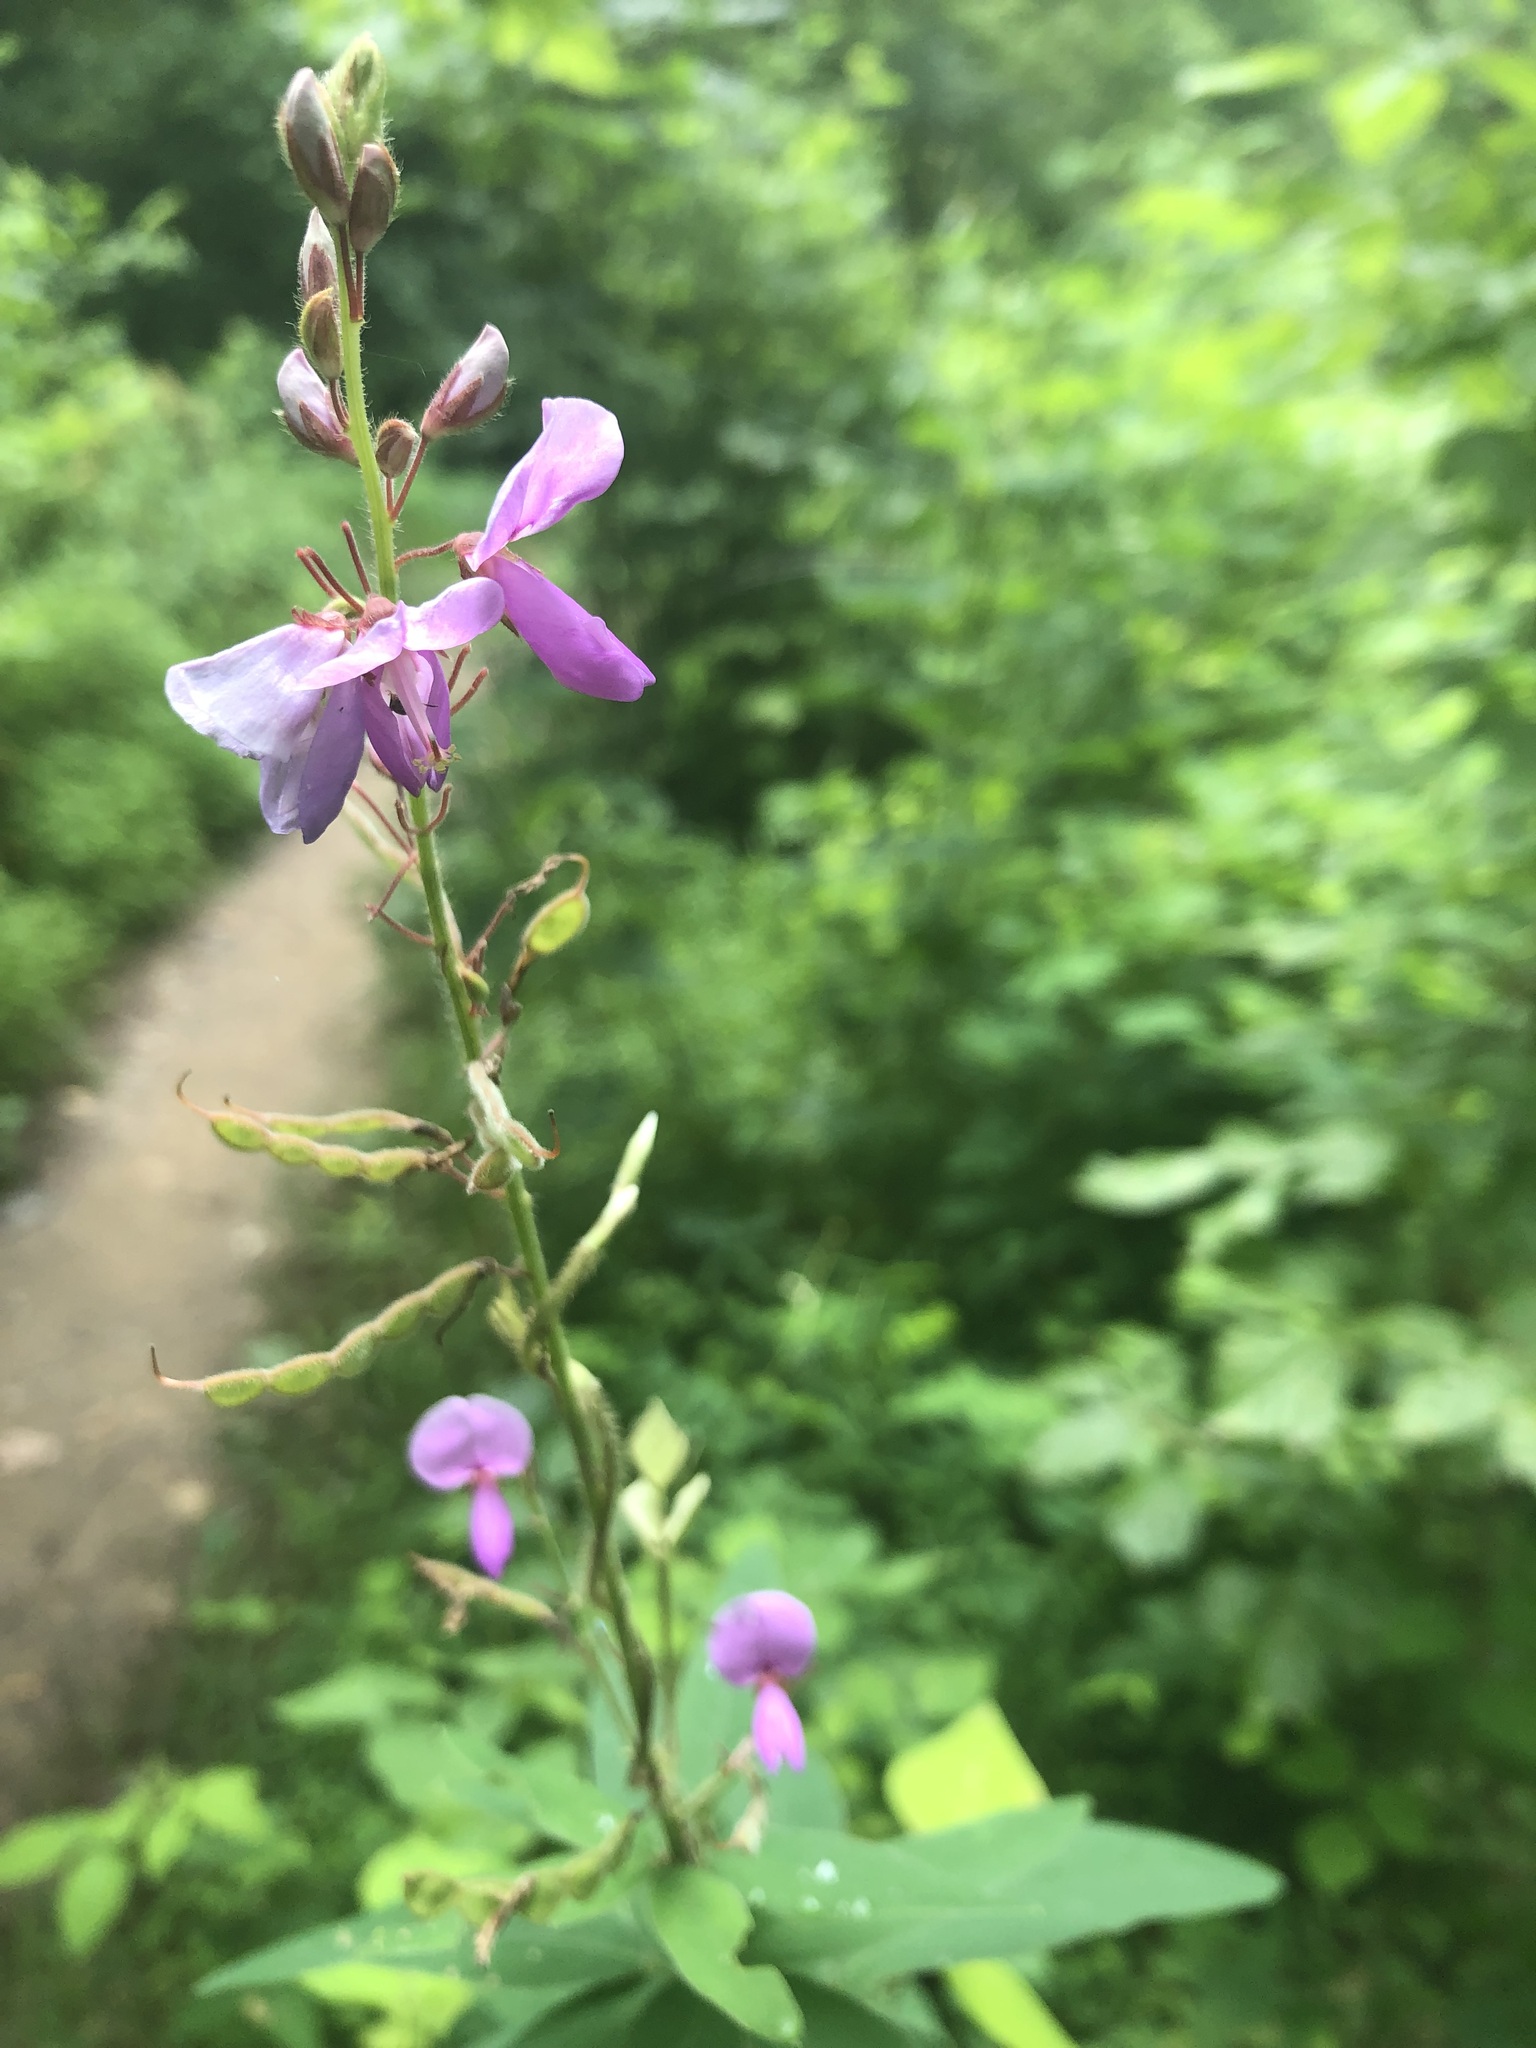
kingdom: Plantae
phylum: Tracheophyta
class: Magnoliopsida
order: Fabales
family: Fabaceae
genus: Desmodium
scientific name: Desmodium canadense
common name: Canada tick-trefoil
